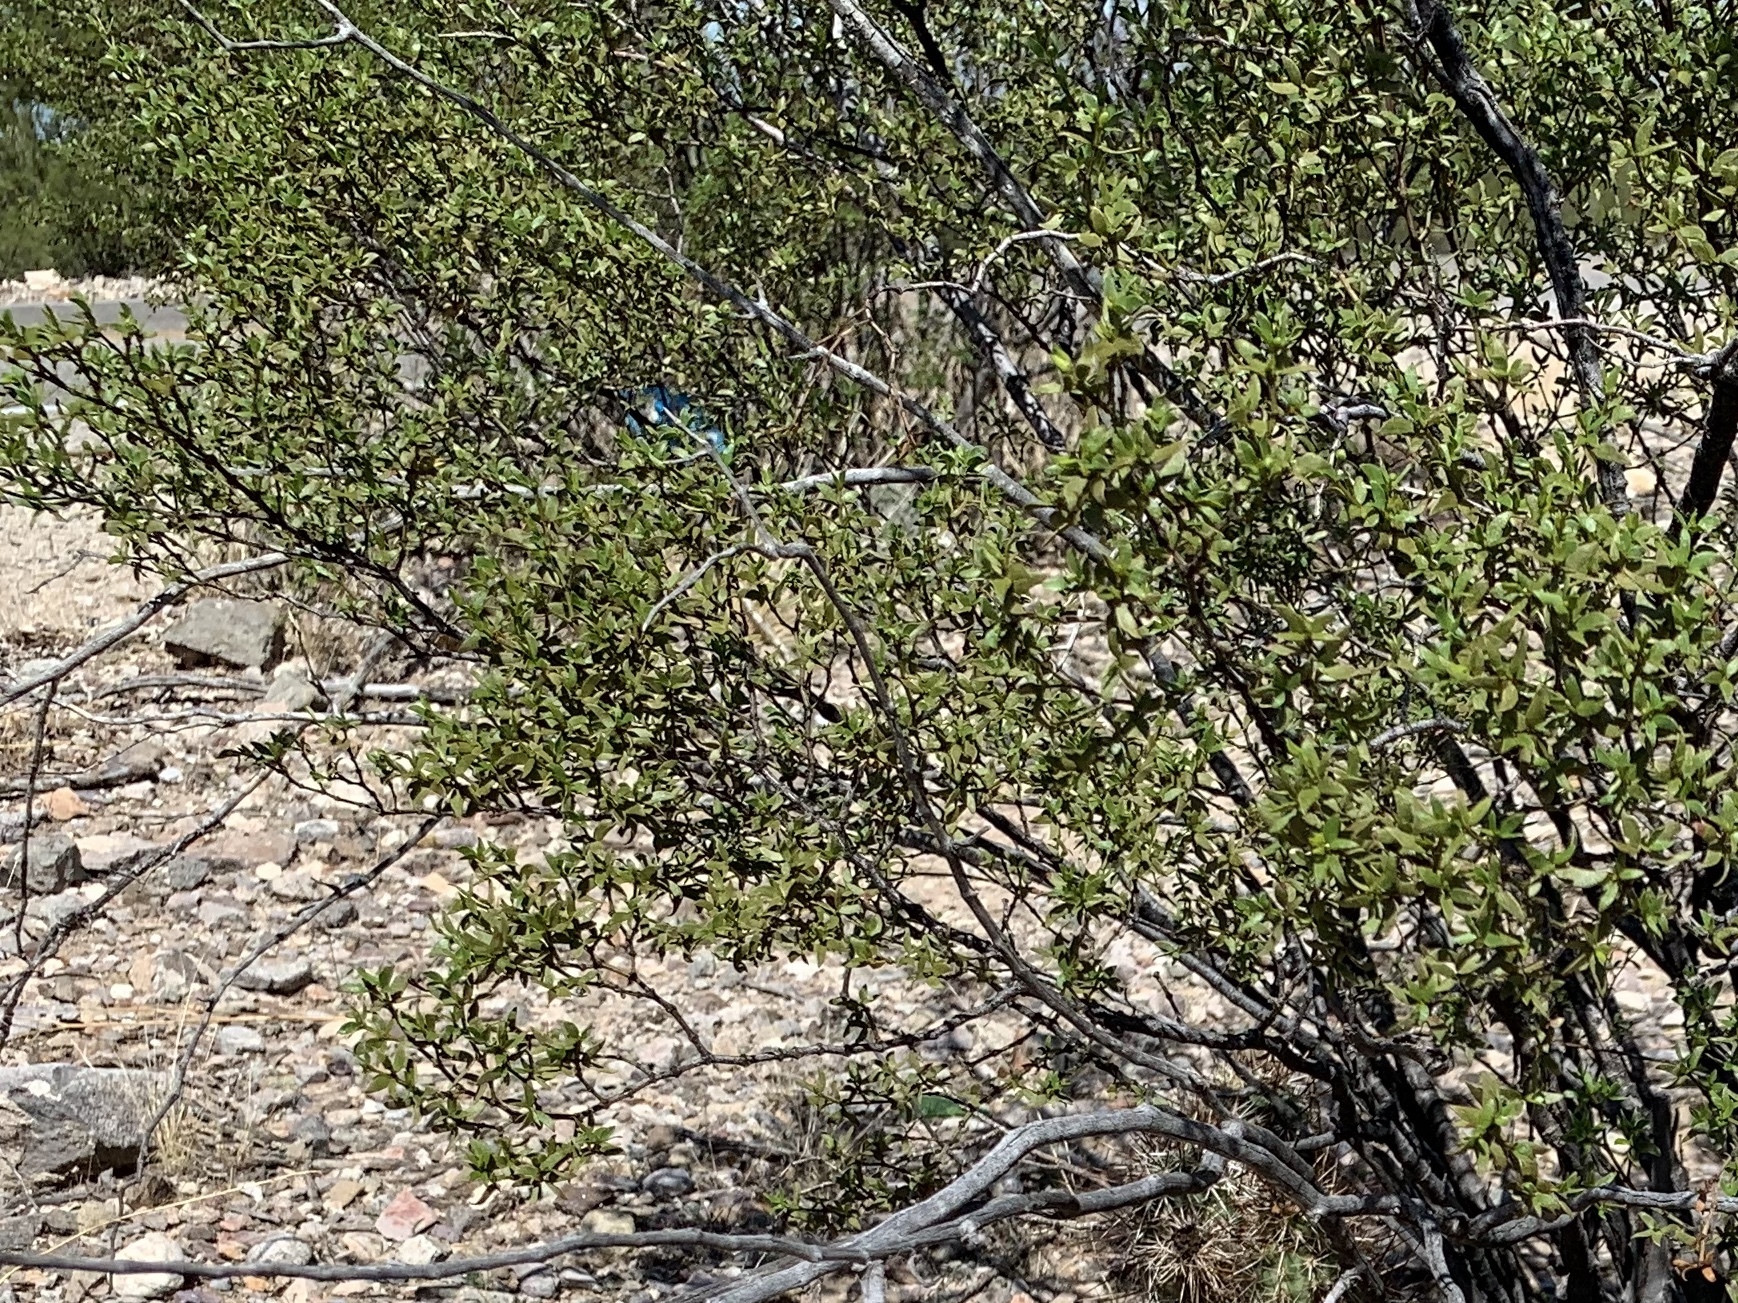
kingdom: Plantae
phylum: Tracheophyta
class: Magnoliopsida
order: Zygophyllales
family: Zygophyllaceae
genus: Larrea
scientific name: Larrea tridentata
